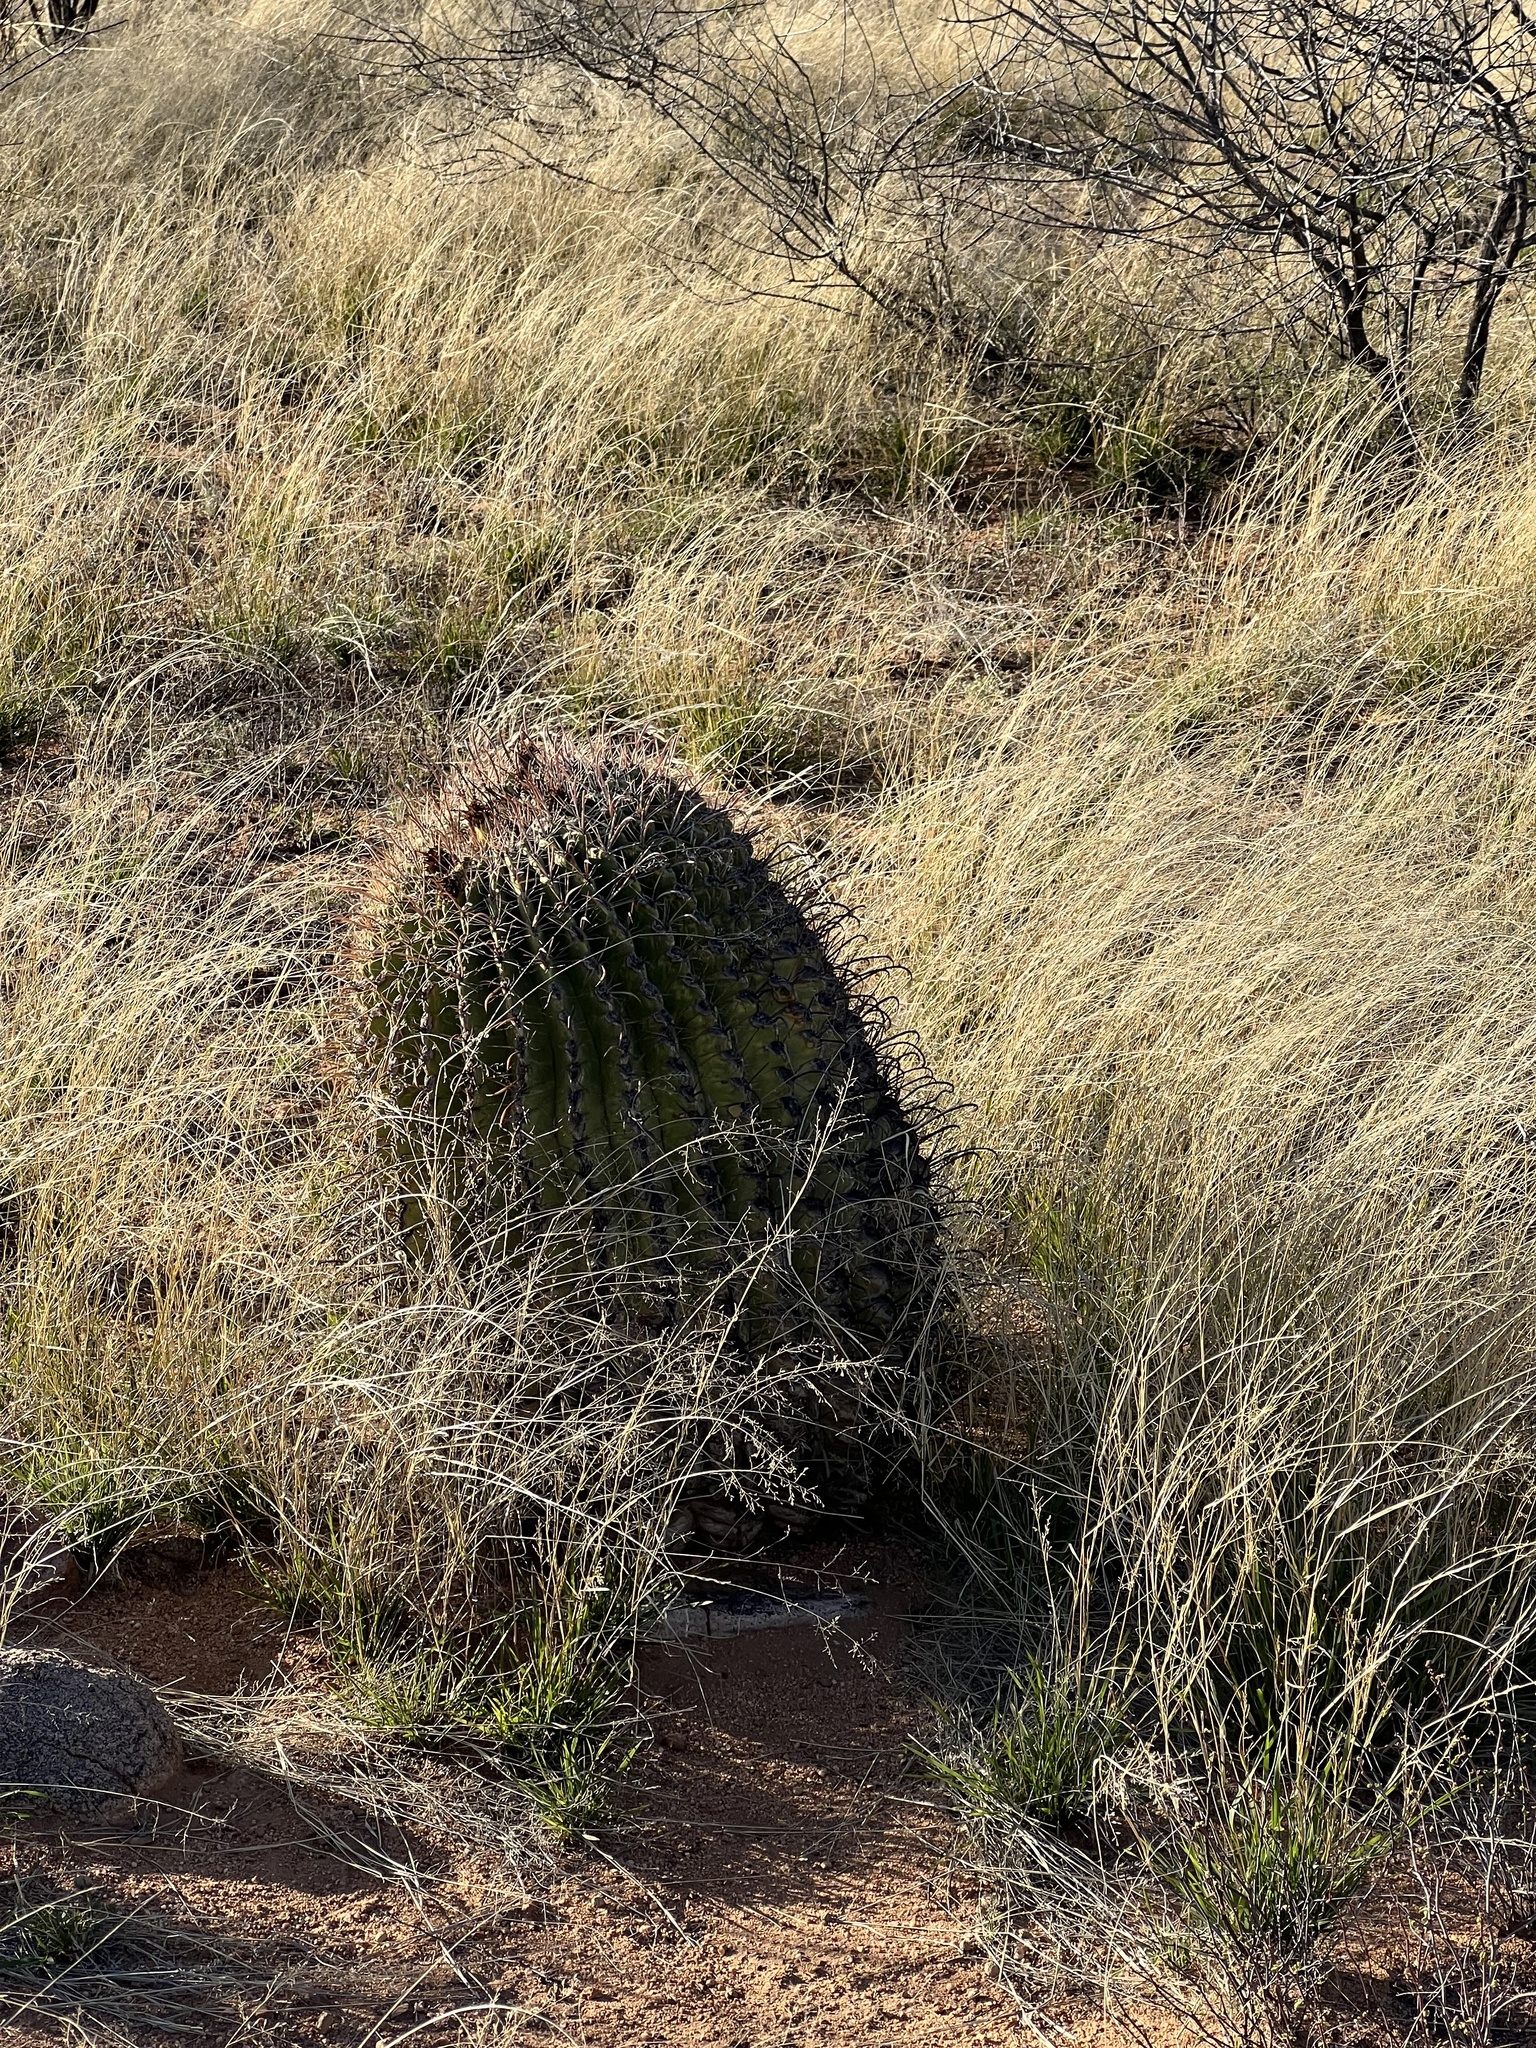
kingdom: Plantae
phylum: Tracheophyta
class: Magnoliopsida
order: Caryophyllales
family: Cactaceae
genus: Ferocactus
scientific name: Ferocactus wislizeni
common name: Candy barrel cactus
